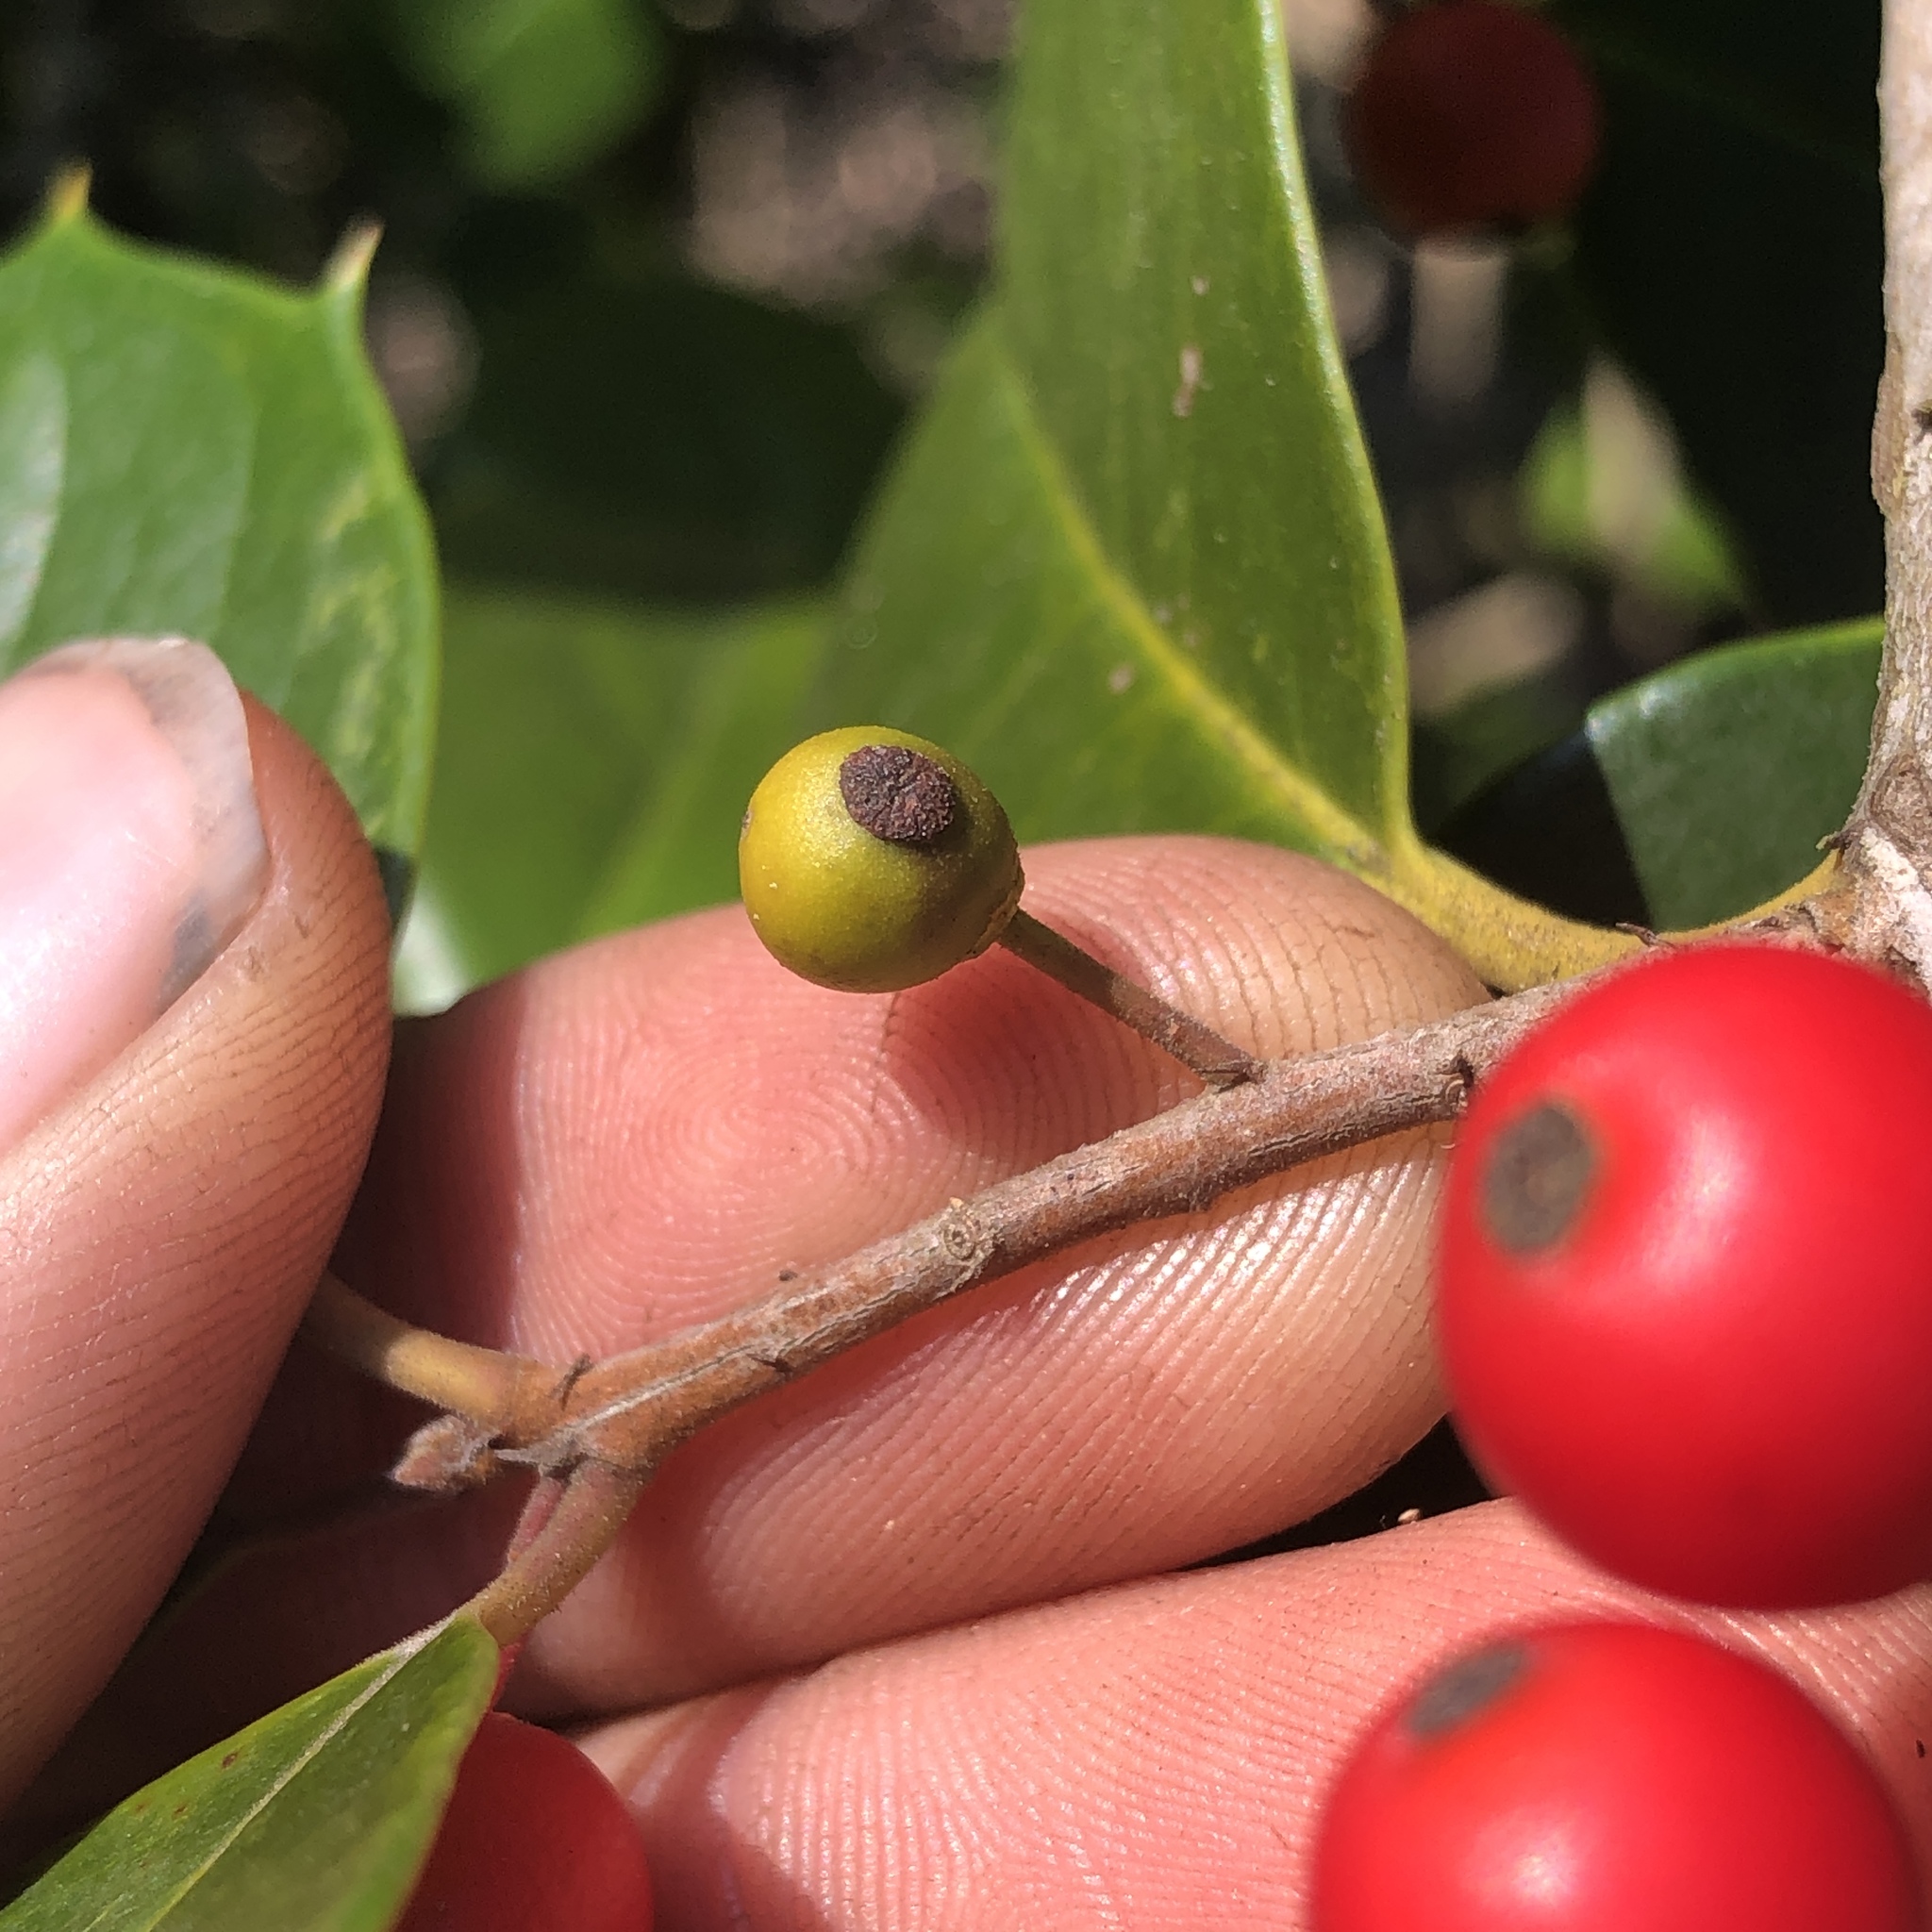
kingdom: Animalia
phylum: Arthropoda
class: Insecta
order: Diptera
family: Cecidomyiidae
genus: Asphondylia
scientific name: Asphondylia ilicicola
